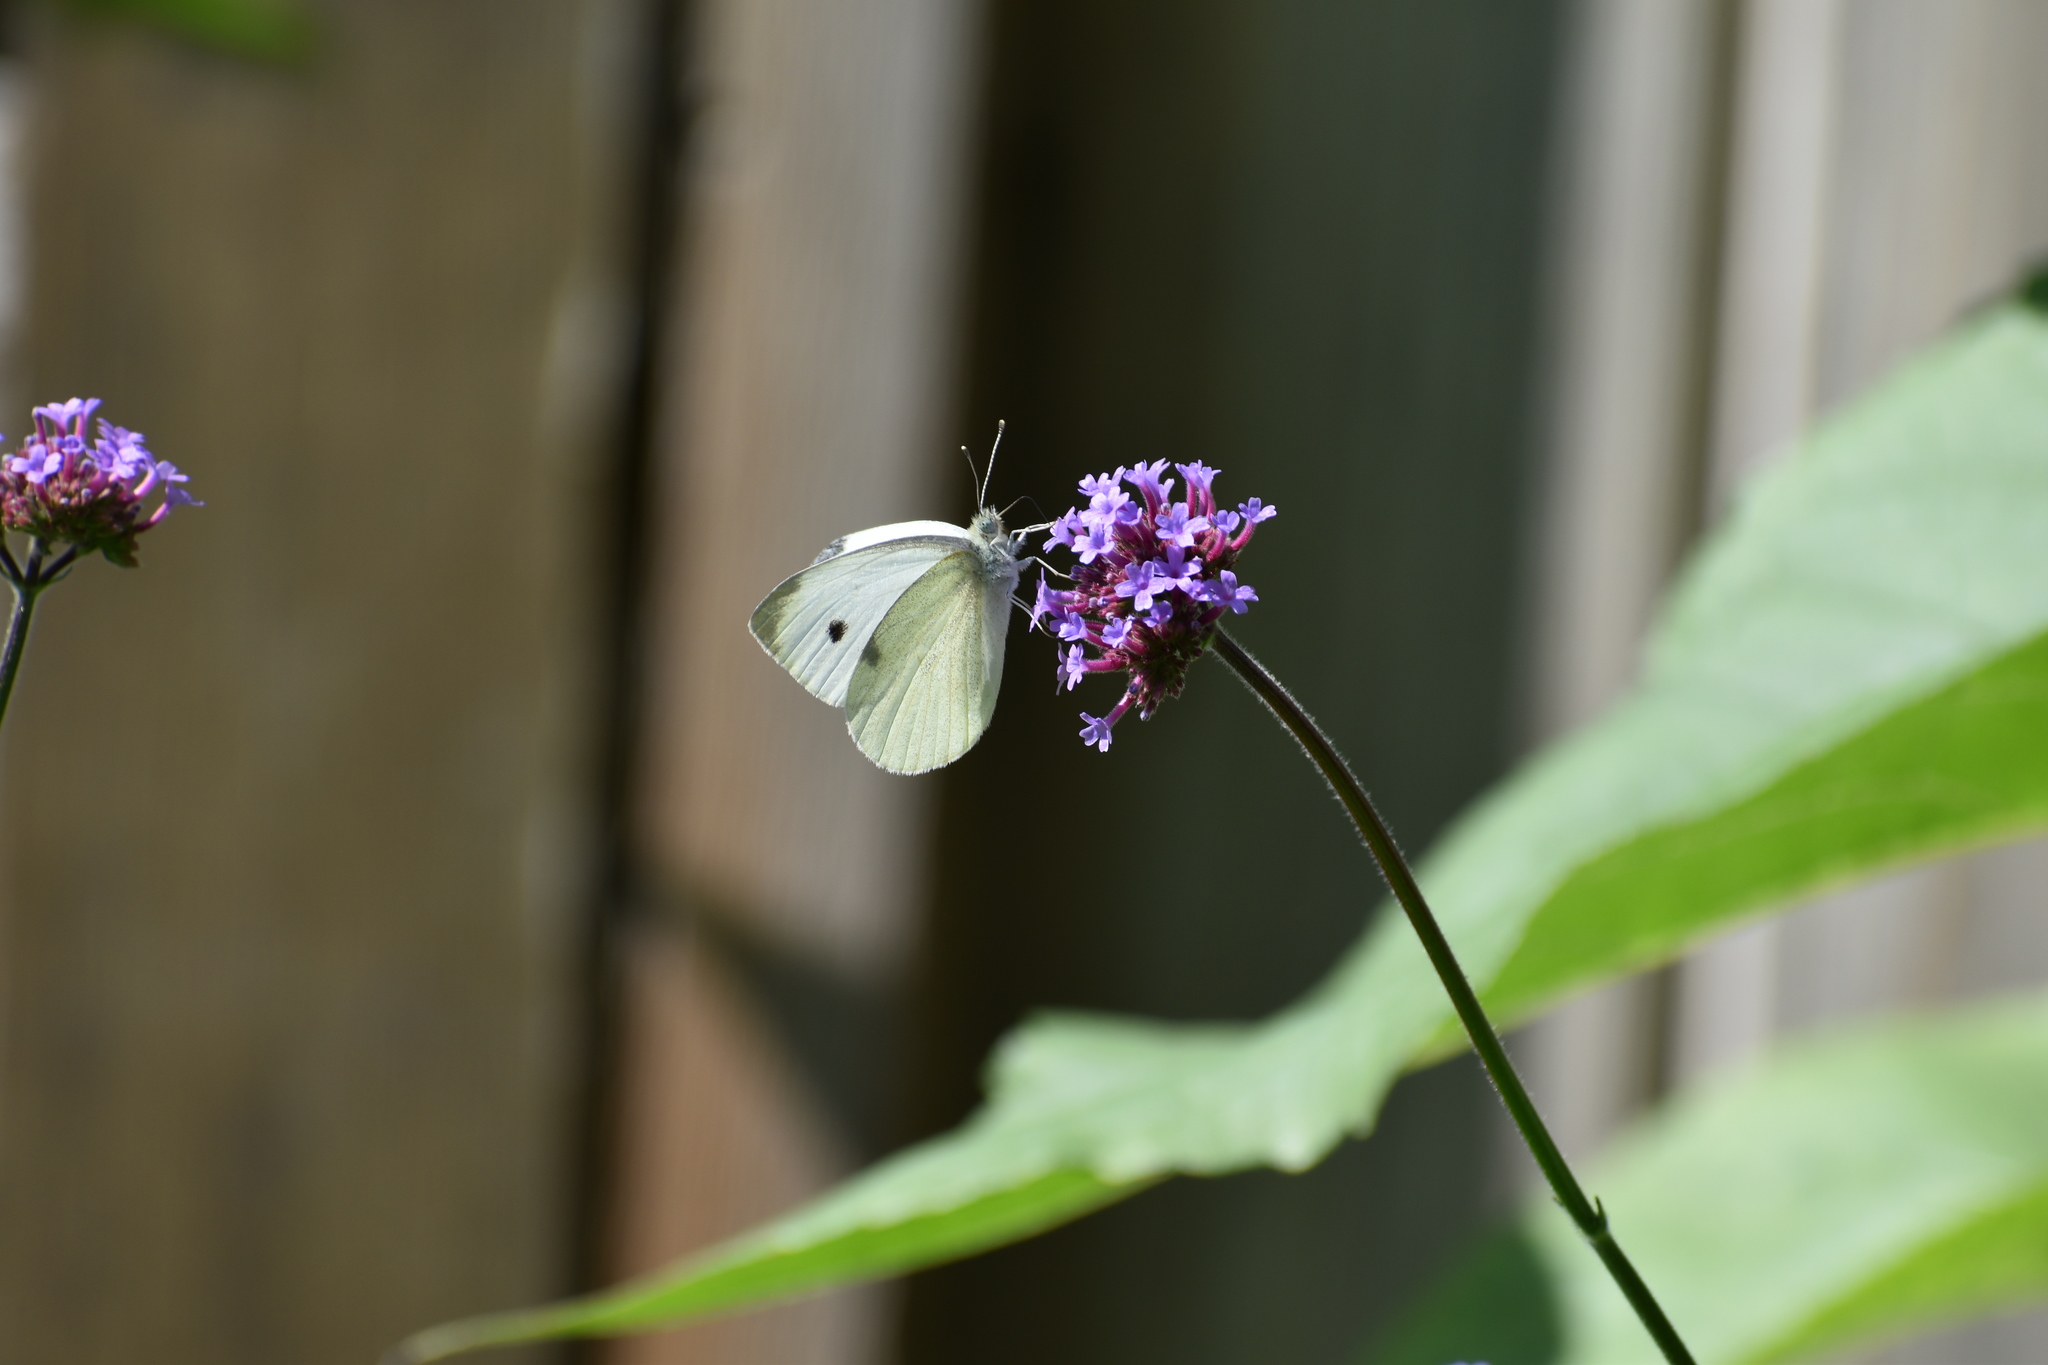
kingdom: Animalia
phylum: Arthropoda
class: Insecta
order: Lepidoptera
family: Pieridae
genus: Pieris
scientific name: Pieris rapae
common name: Small white
